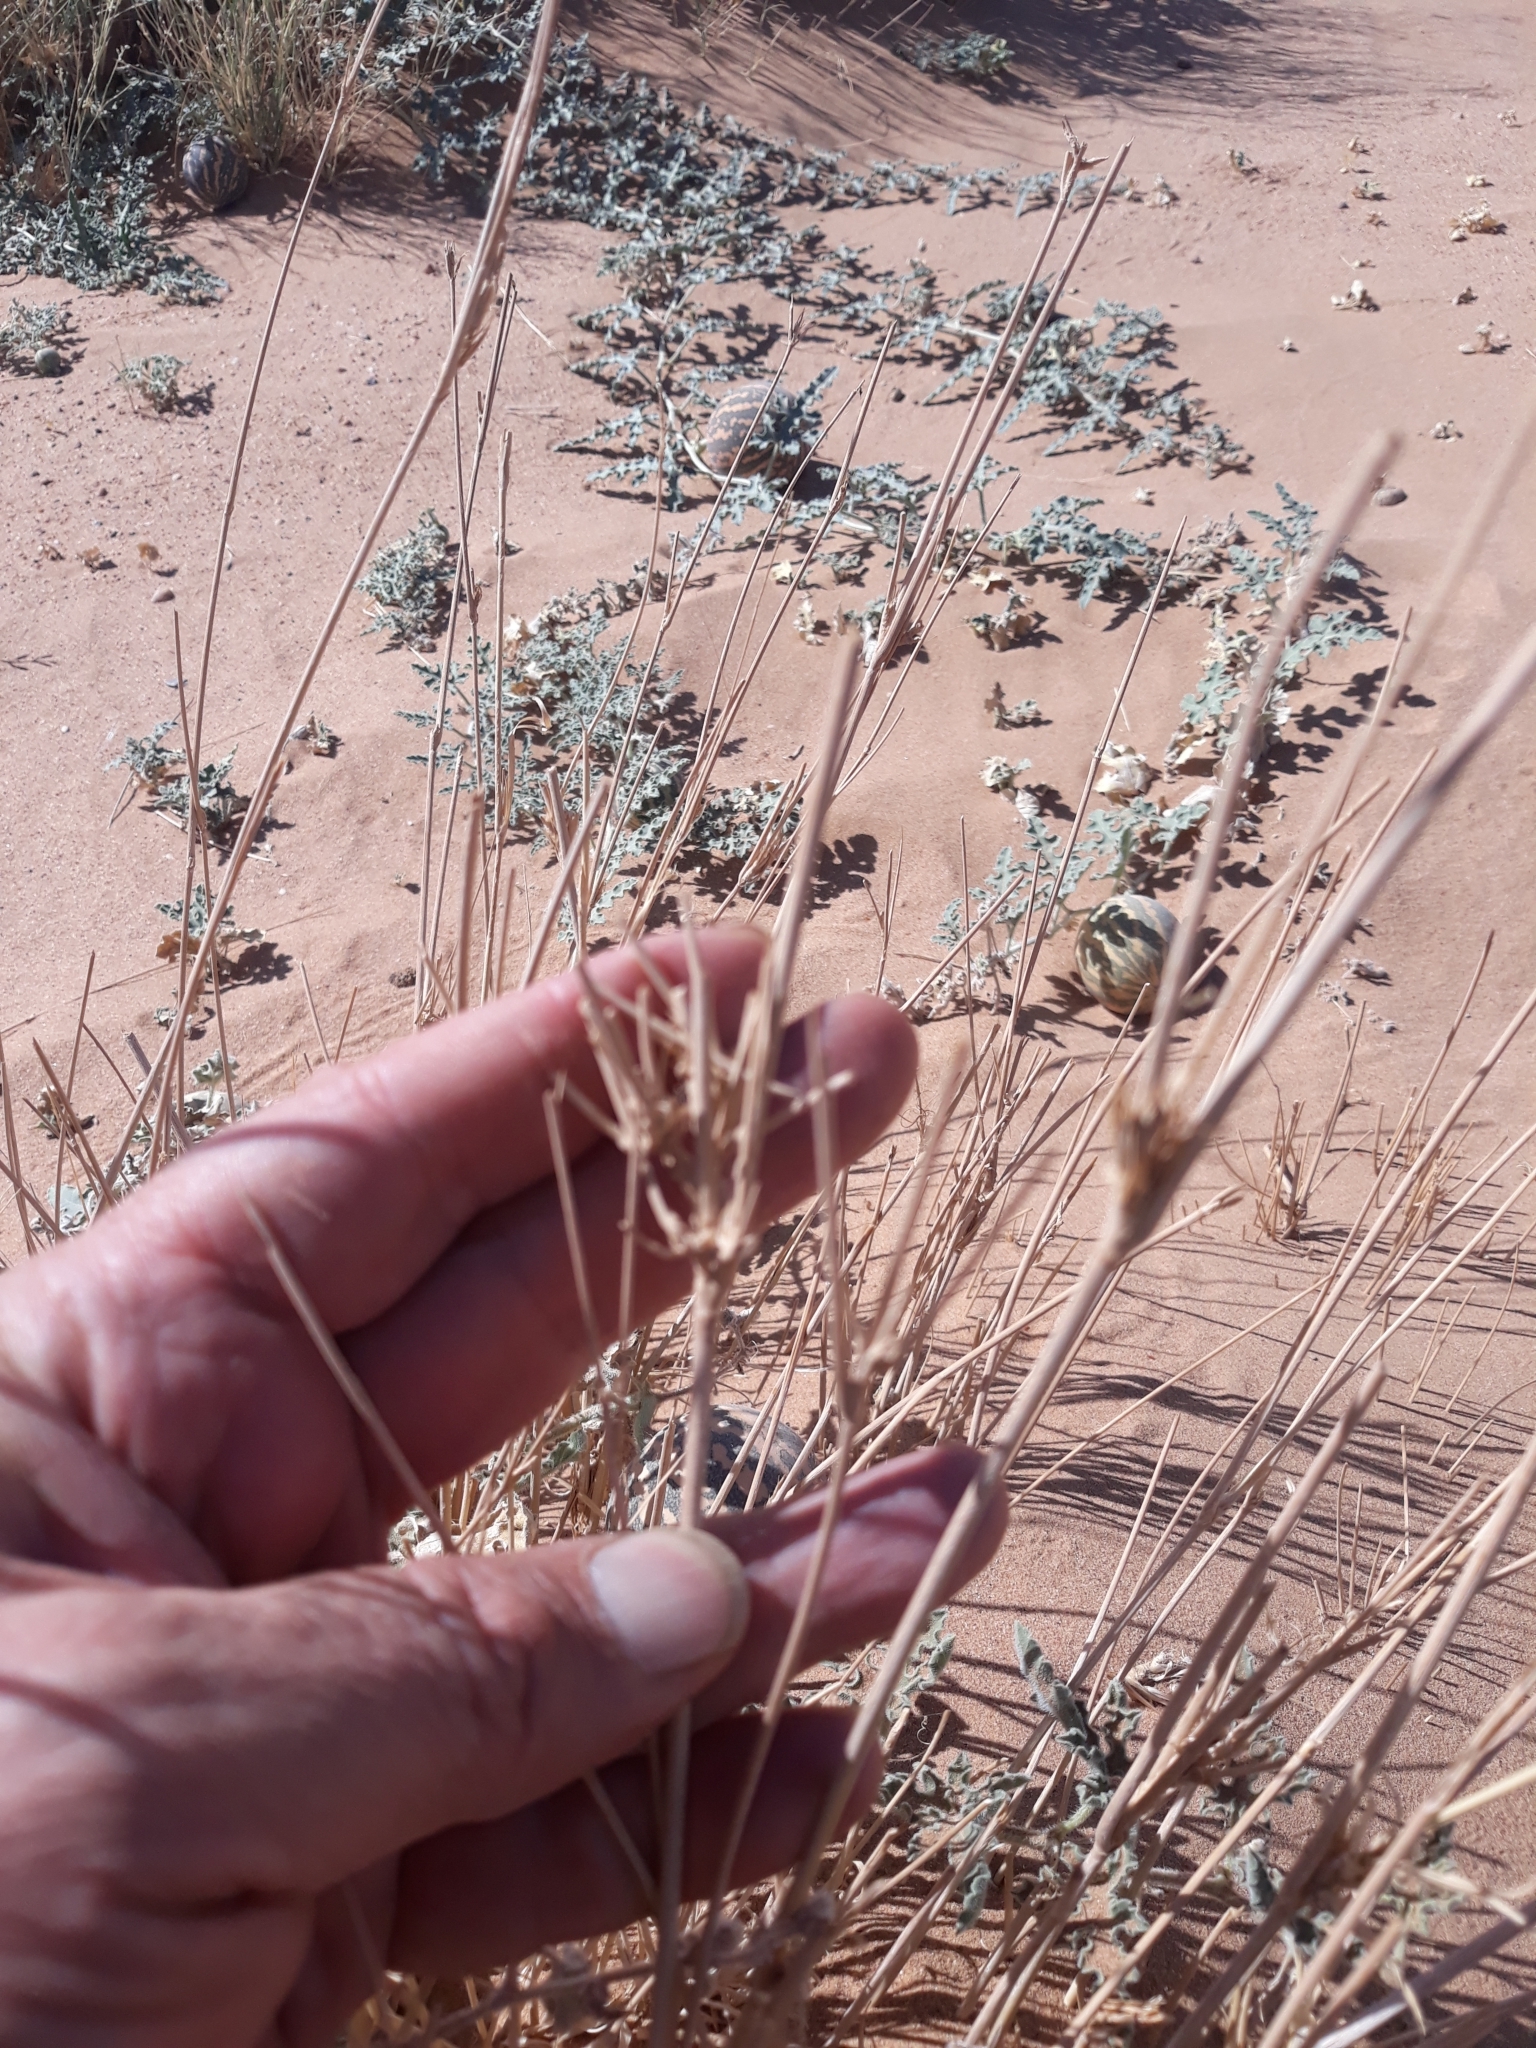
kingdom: Plantae
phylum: Tracheophyta
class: Liliopsida
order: Poales
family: Poaceae
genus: Panicum
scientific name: Panicum turgidum
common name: Desert grass
